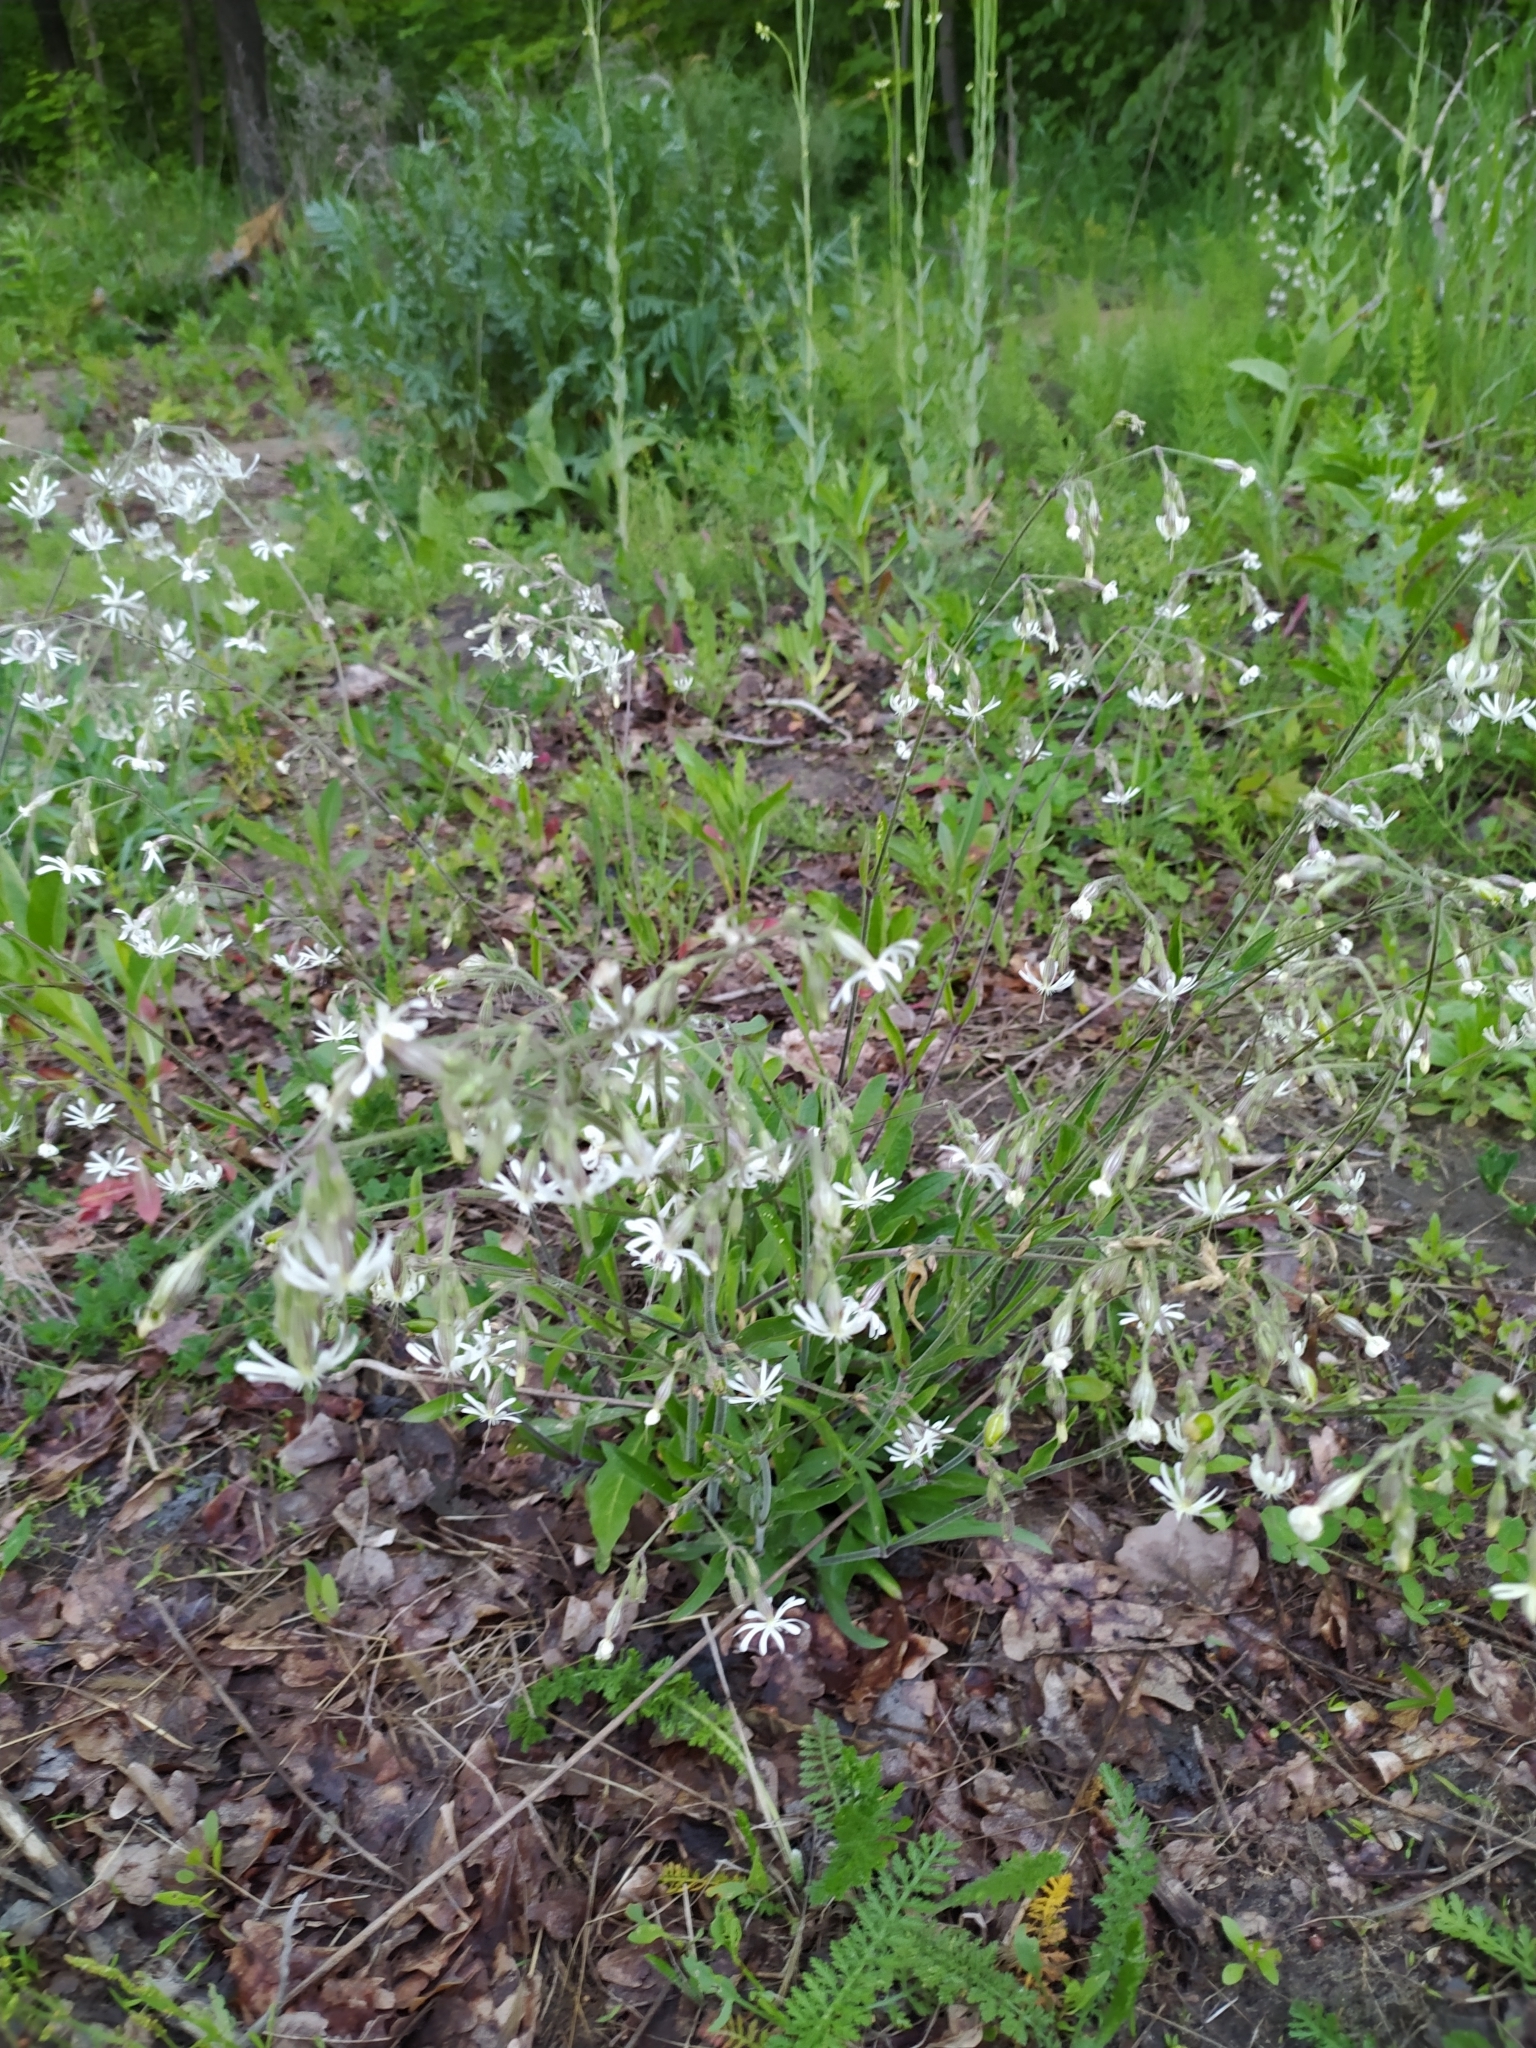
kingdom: Plantae
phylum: Tracheophyta
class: Magnoliopsida
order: Caryophyllales
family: Caryophyllaceae
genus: Silene
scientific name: Silene nutans
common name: Nottingham catchfly
